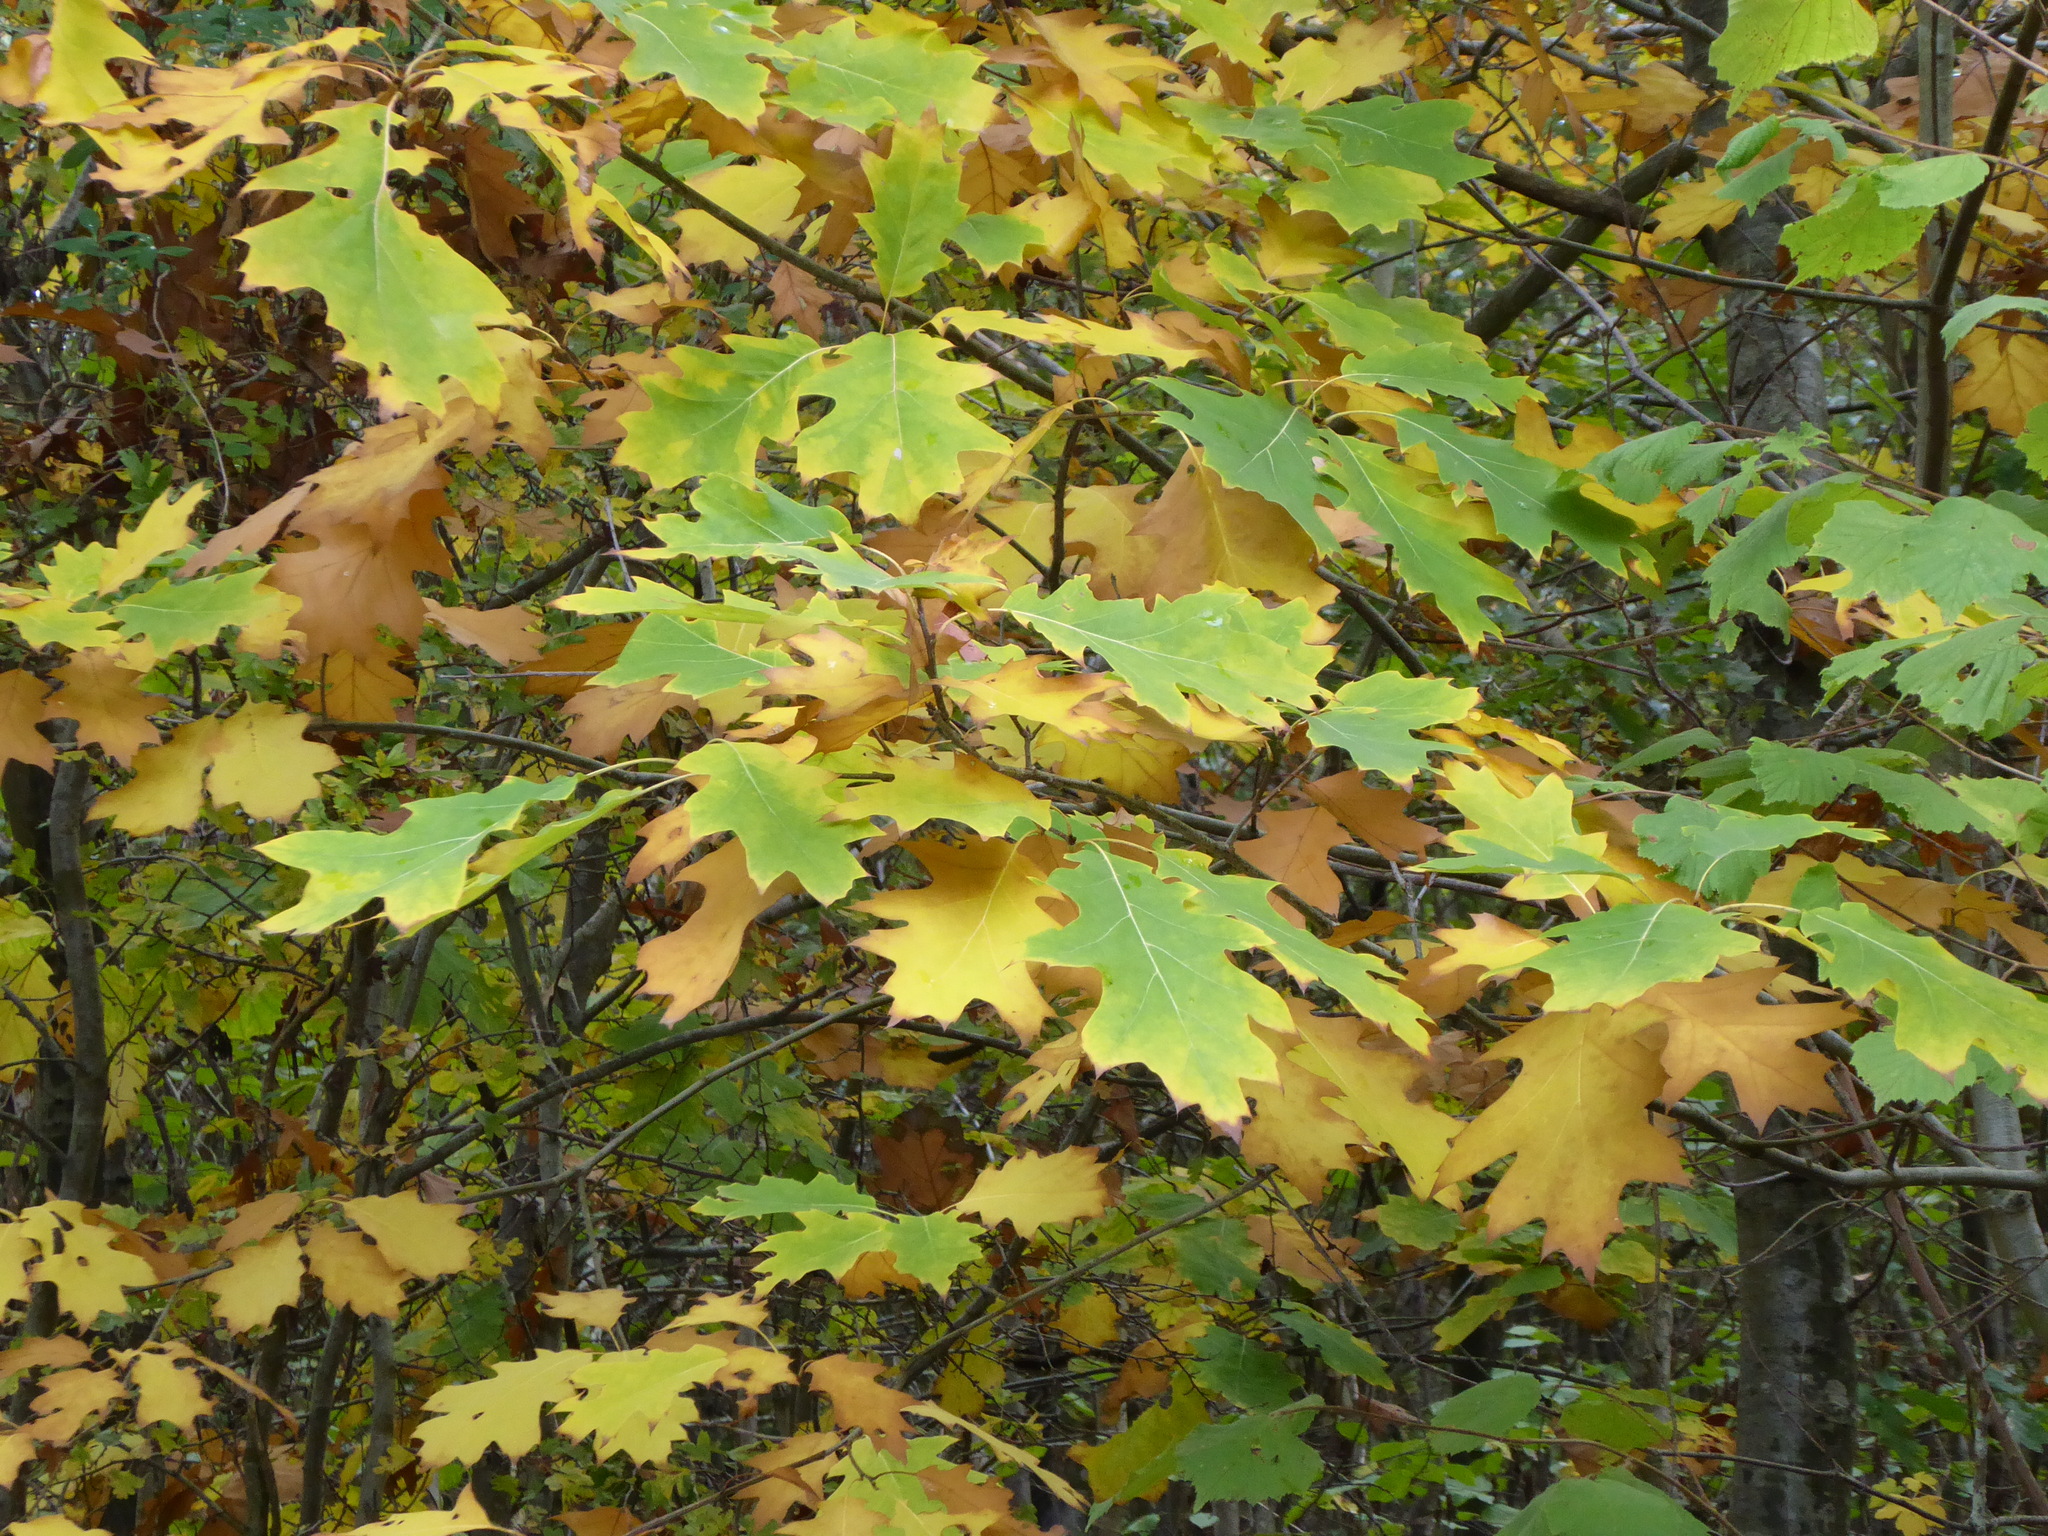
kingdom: Plantae
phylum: Tracheophyta
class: Magnoliopsida
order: Fagales
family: Fagaceae
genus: Quercus
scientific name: Quercus rubra
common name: Red oak
